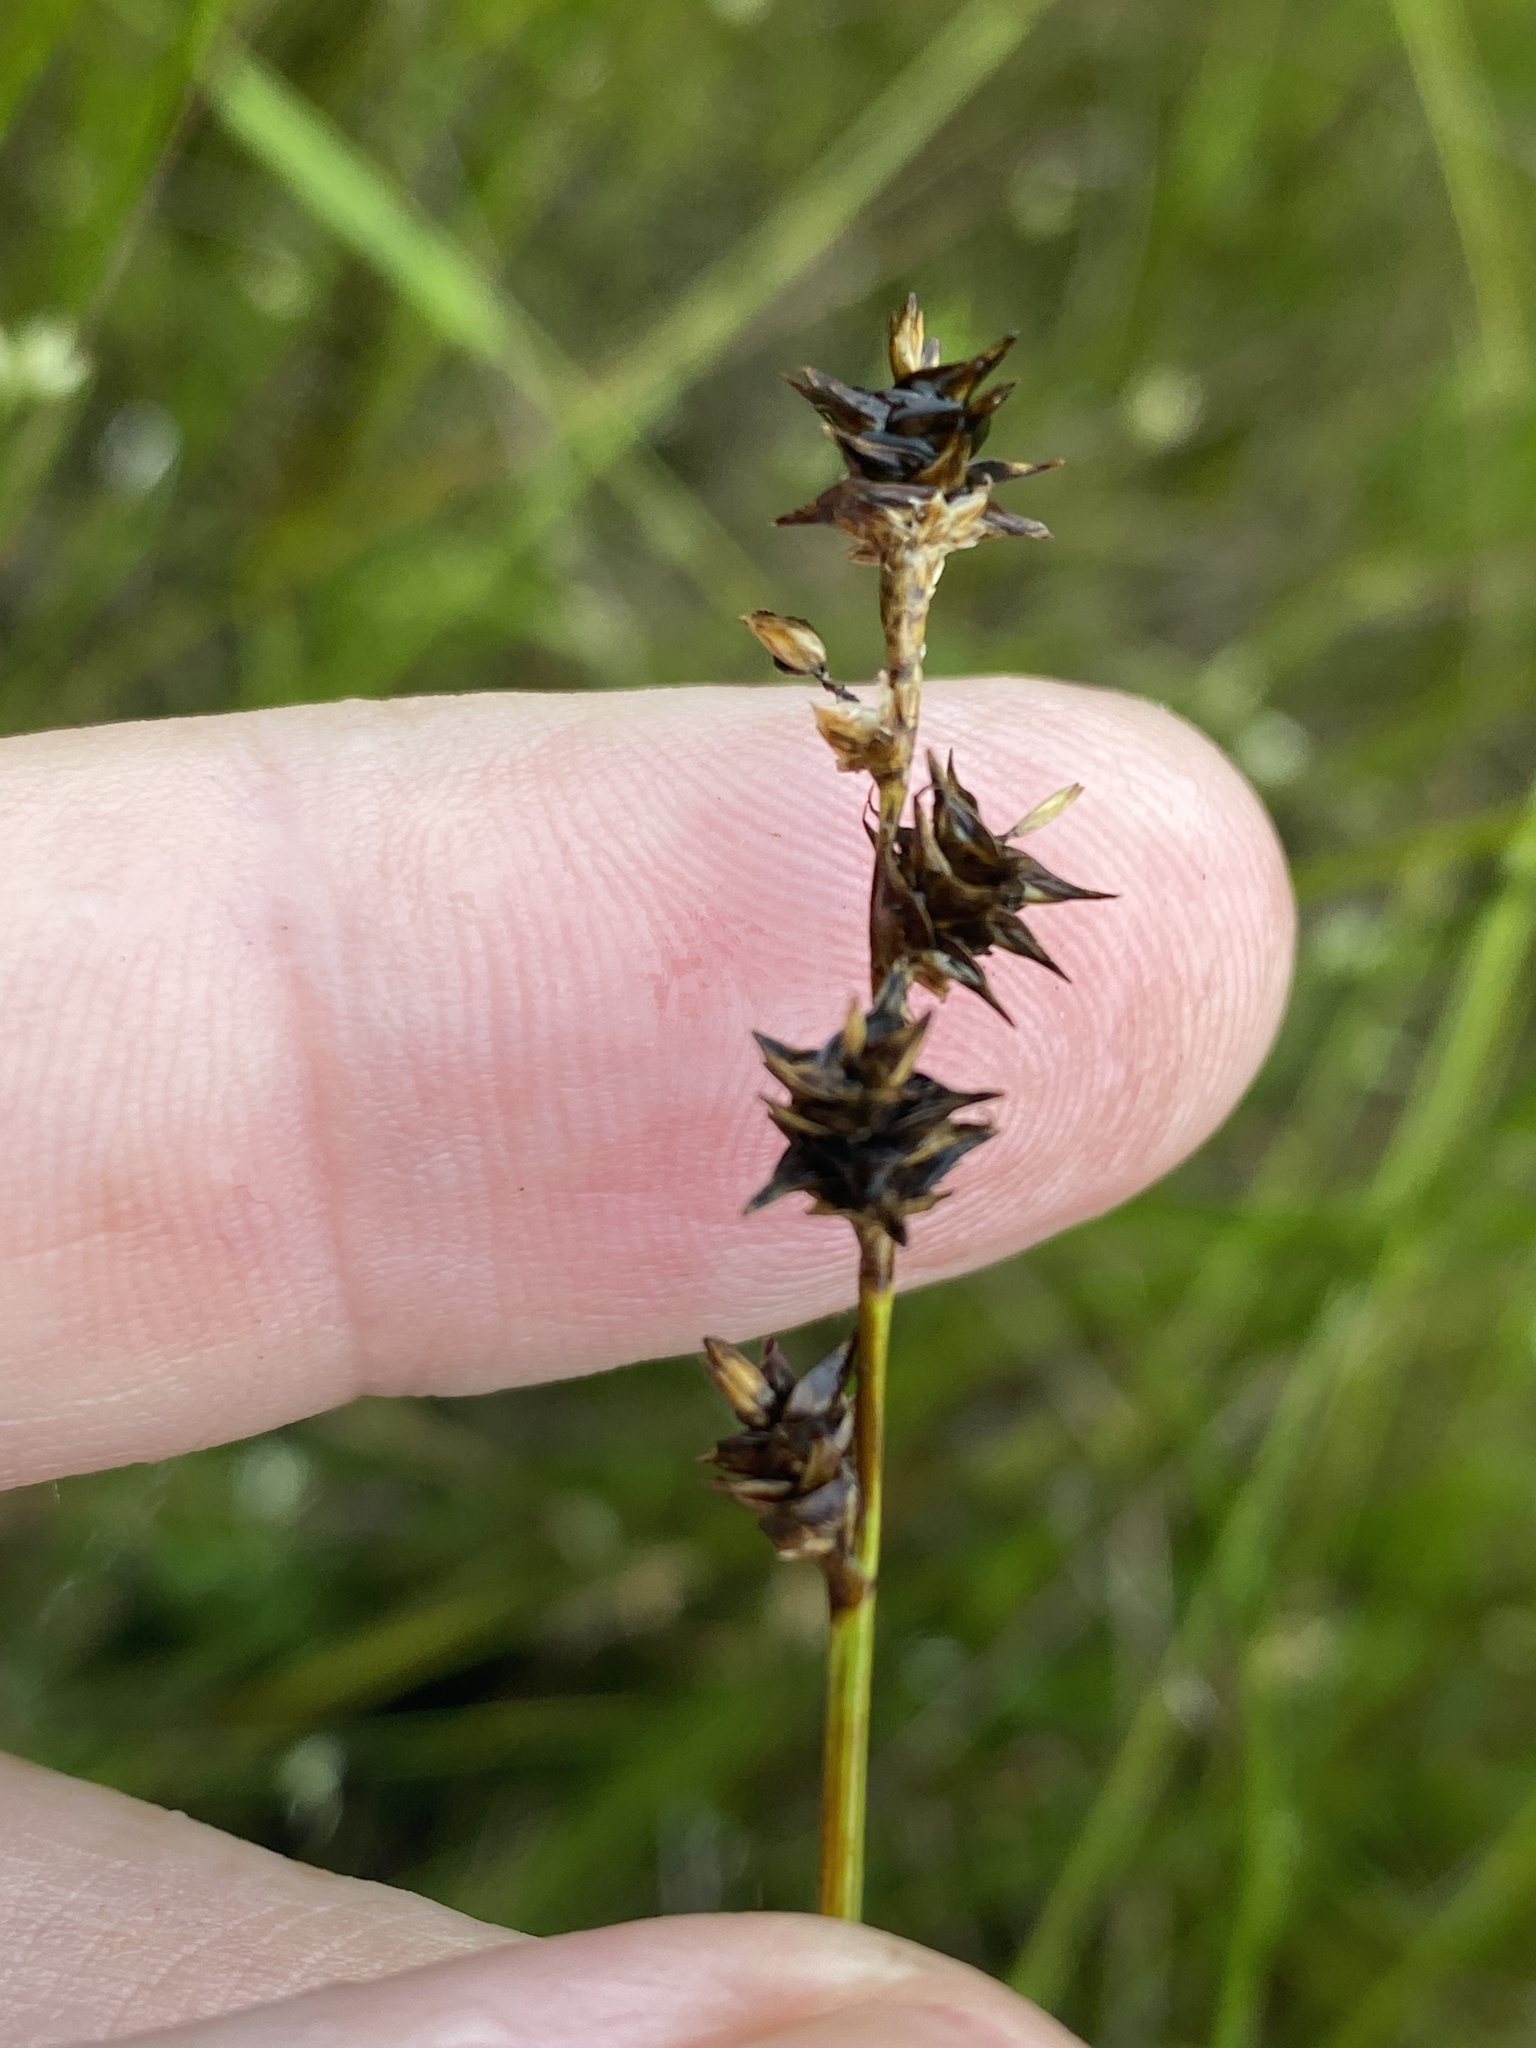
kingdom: Plantae
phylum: Tracheophyta
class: Liliopsida
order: Poales
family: Cyperaceae
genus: Carex
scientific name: Carex echinata
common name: Star sedge
